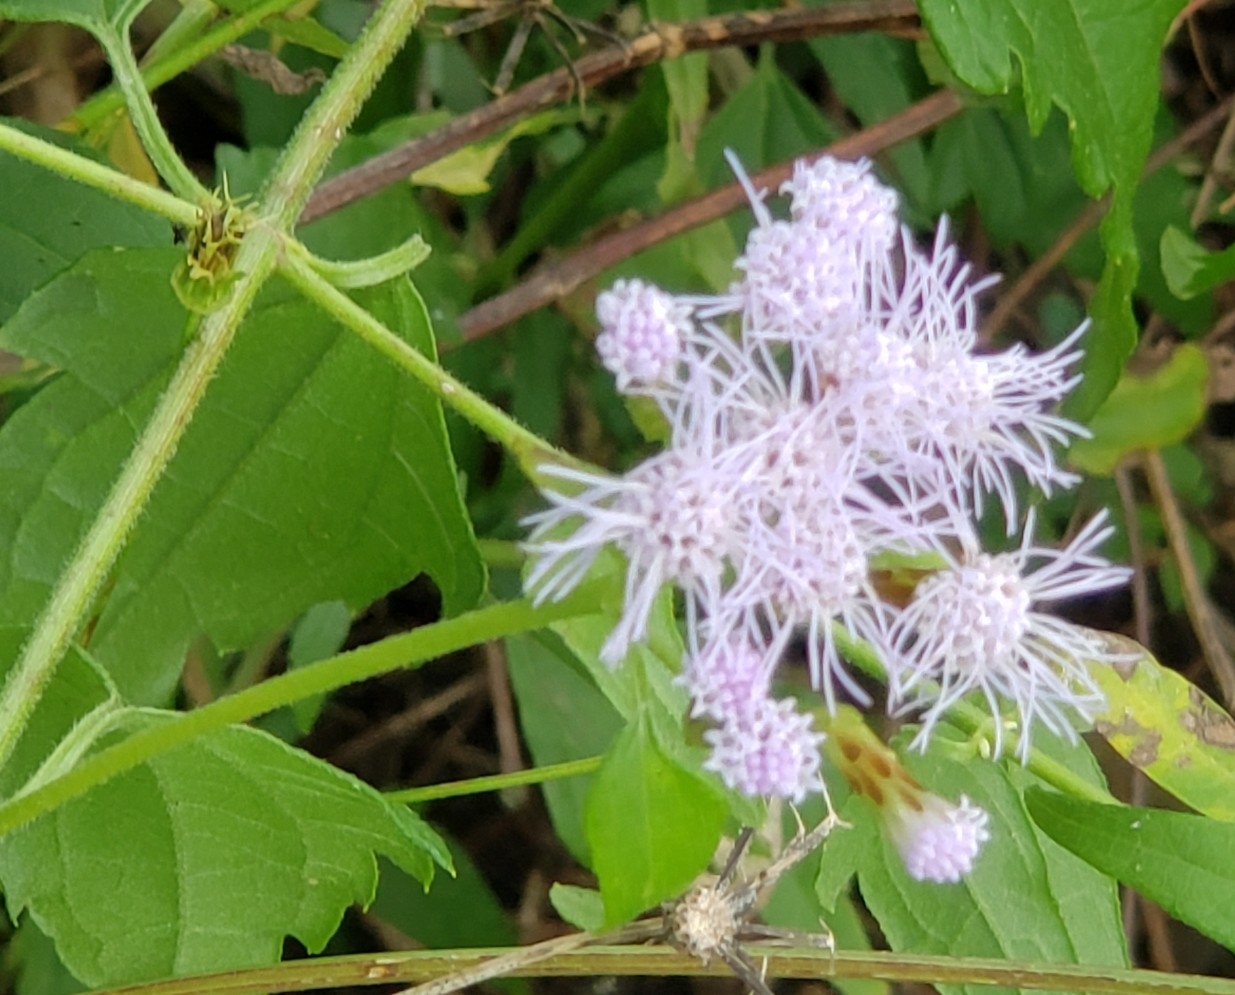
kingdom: Plantae
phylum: Tracheophyta
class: Magnoliopsida
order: Asterales
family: Asteraceae
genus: Chromolaena
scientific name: Chromolaena odorata
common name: Siamweed
